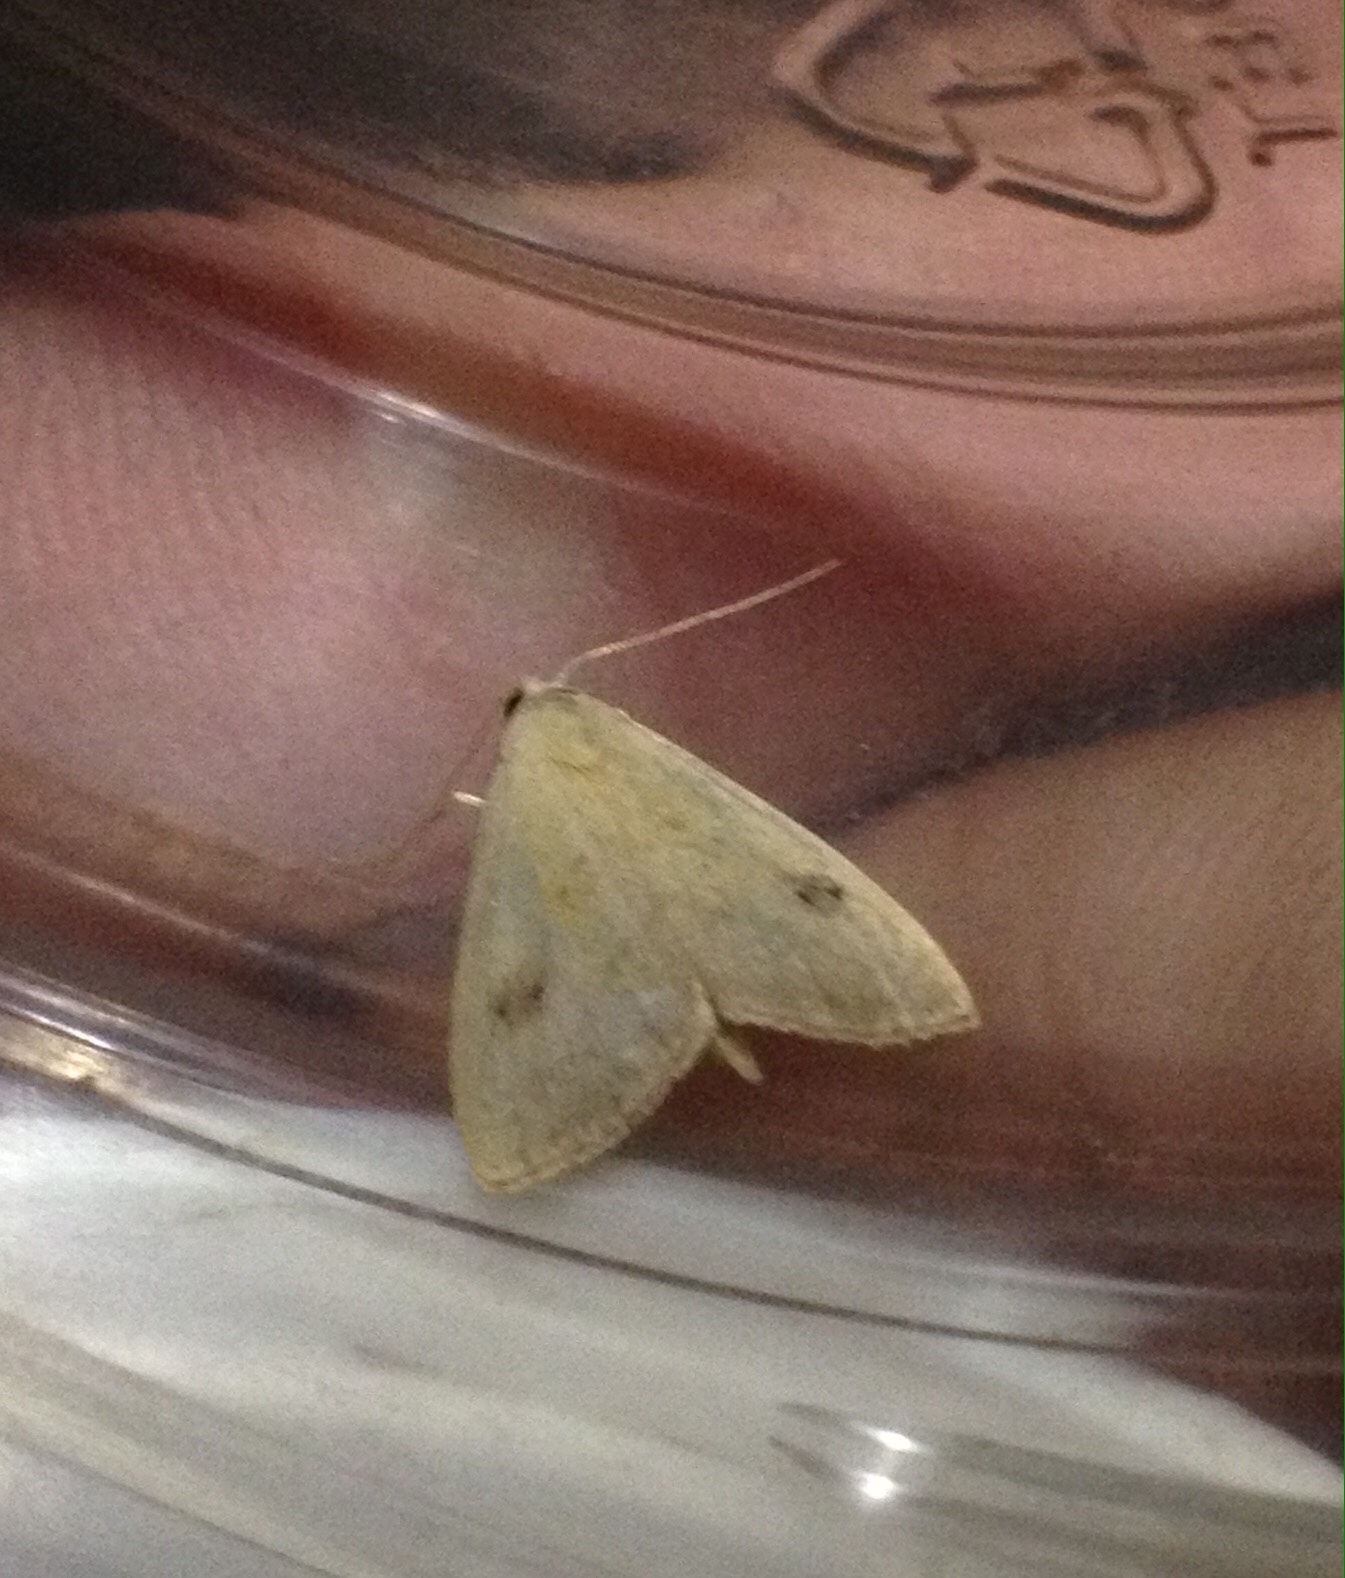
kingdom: Animalia
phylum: Arthropoda
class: Insecta
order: Lepidoptera
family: Erebidae
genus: Rivula
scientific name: Rivula sericealis
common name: Straw dot
